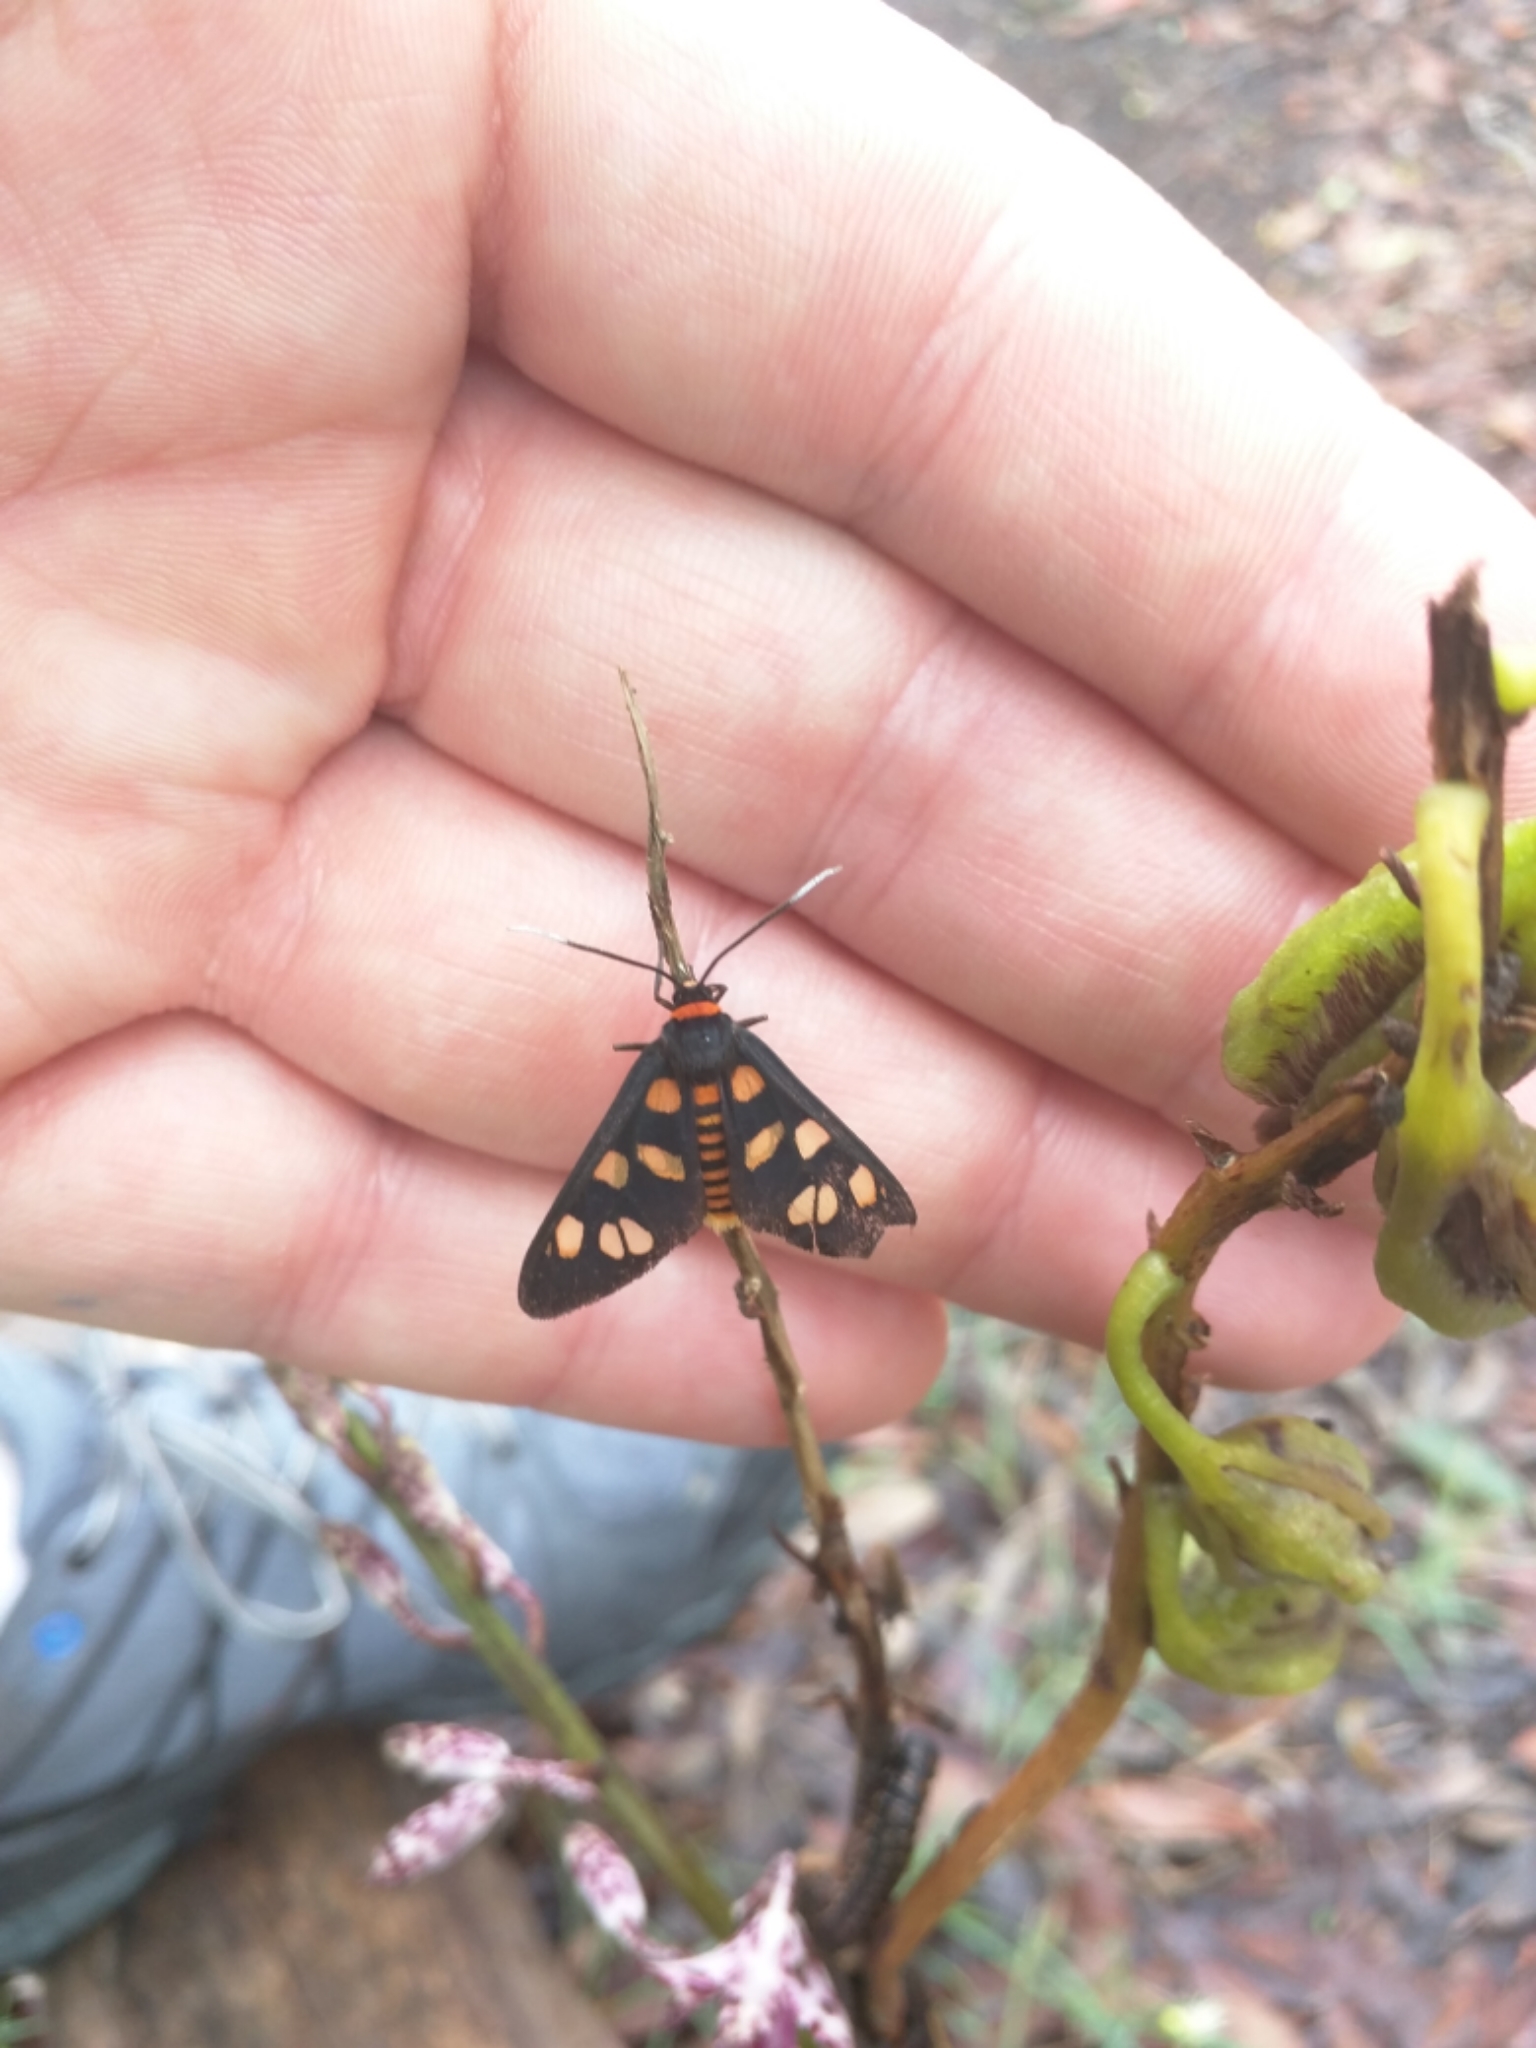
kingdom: Animalia
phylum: Arthropoda
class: Insecta
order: Lepidoptera
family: Erebidae
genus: Amata
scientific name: Amata nigriceps
